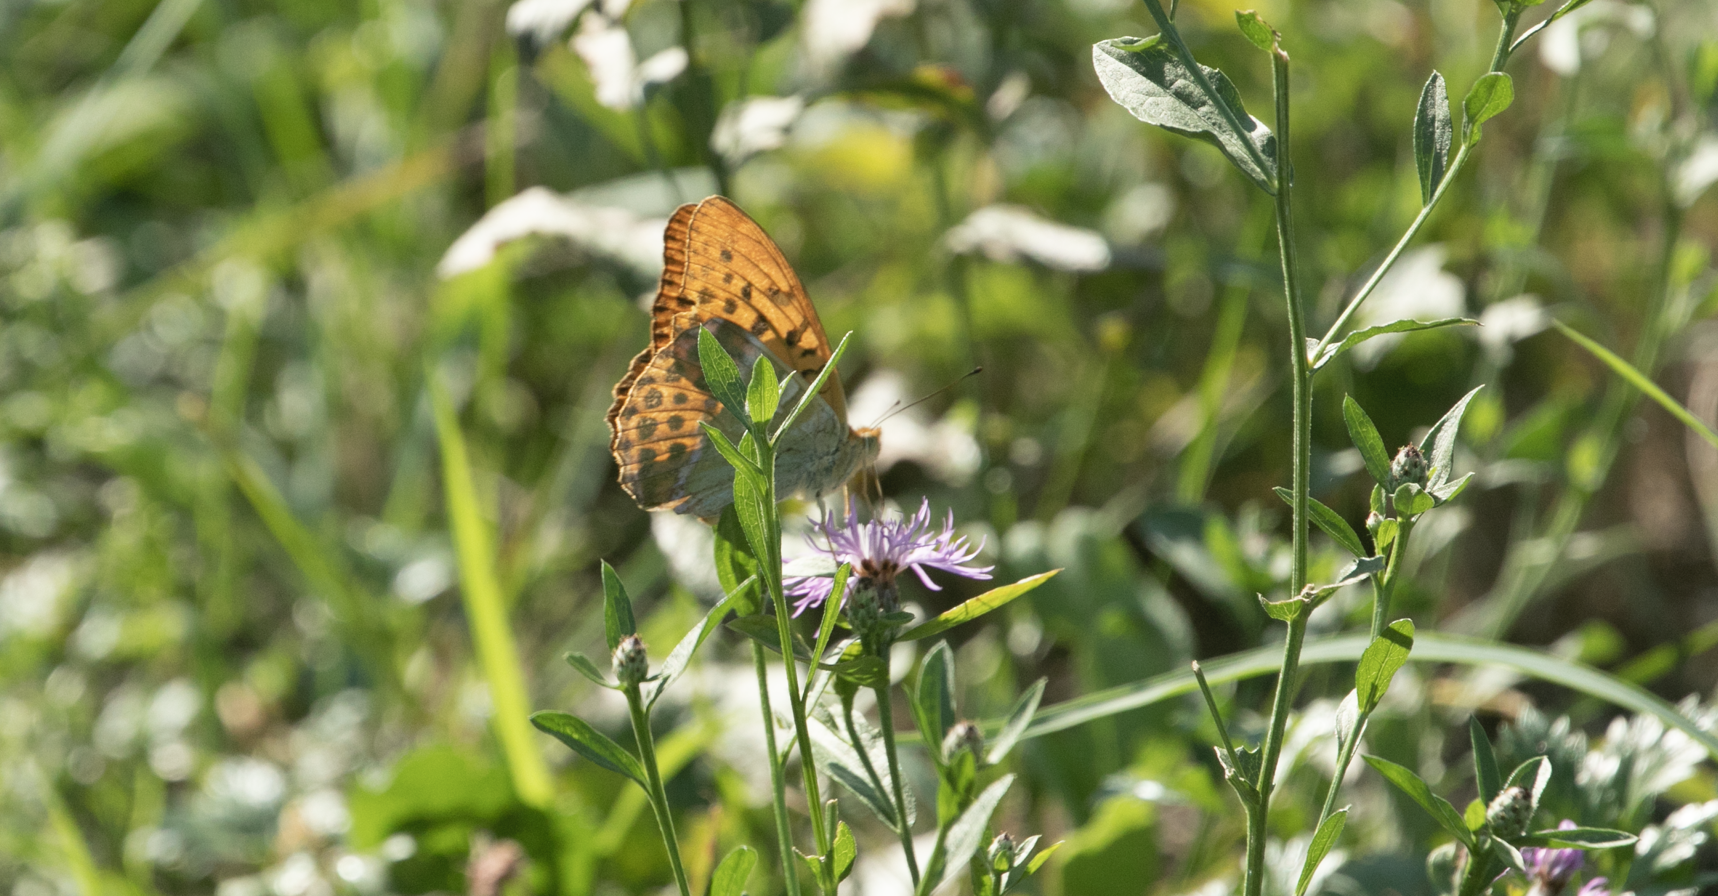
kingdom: Animalia
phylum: Arthropoda
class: Insecta
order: Lepidoptera
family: Nymphalidae
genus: Argynnis
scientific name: Argynnis paphia
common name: Silver-washed fritillary
